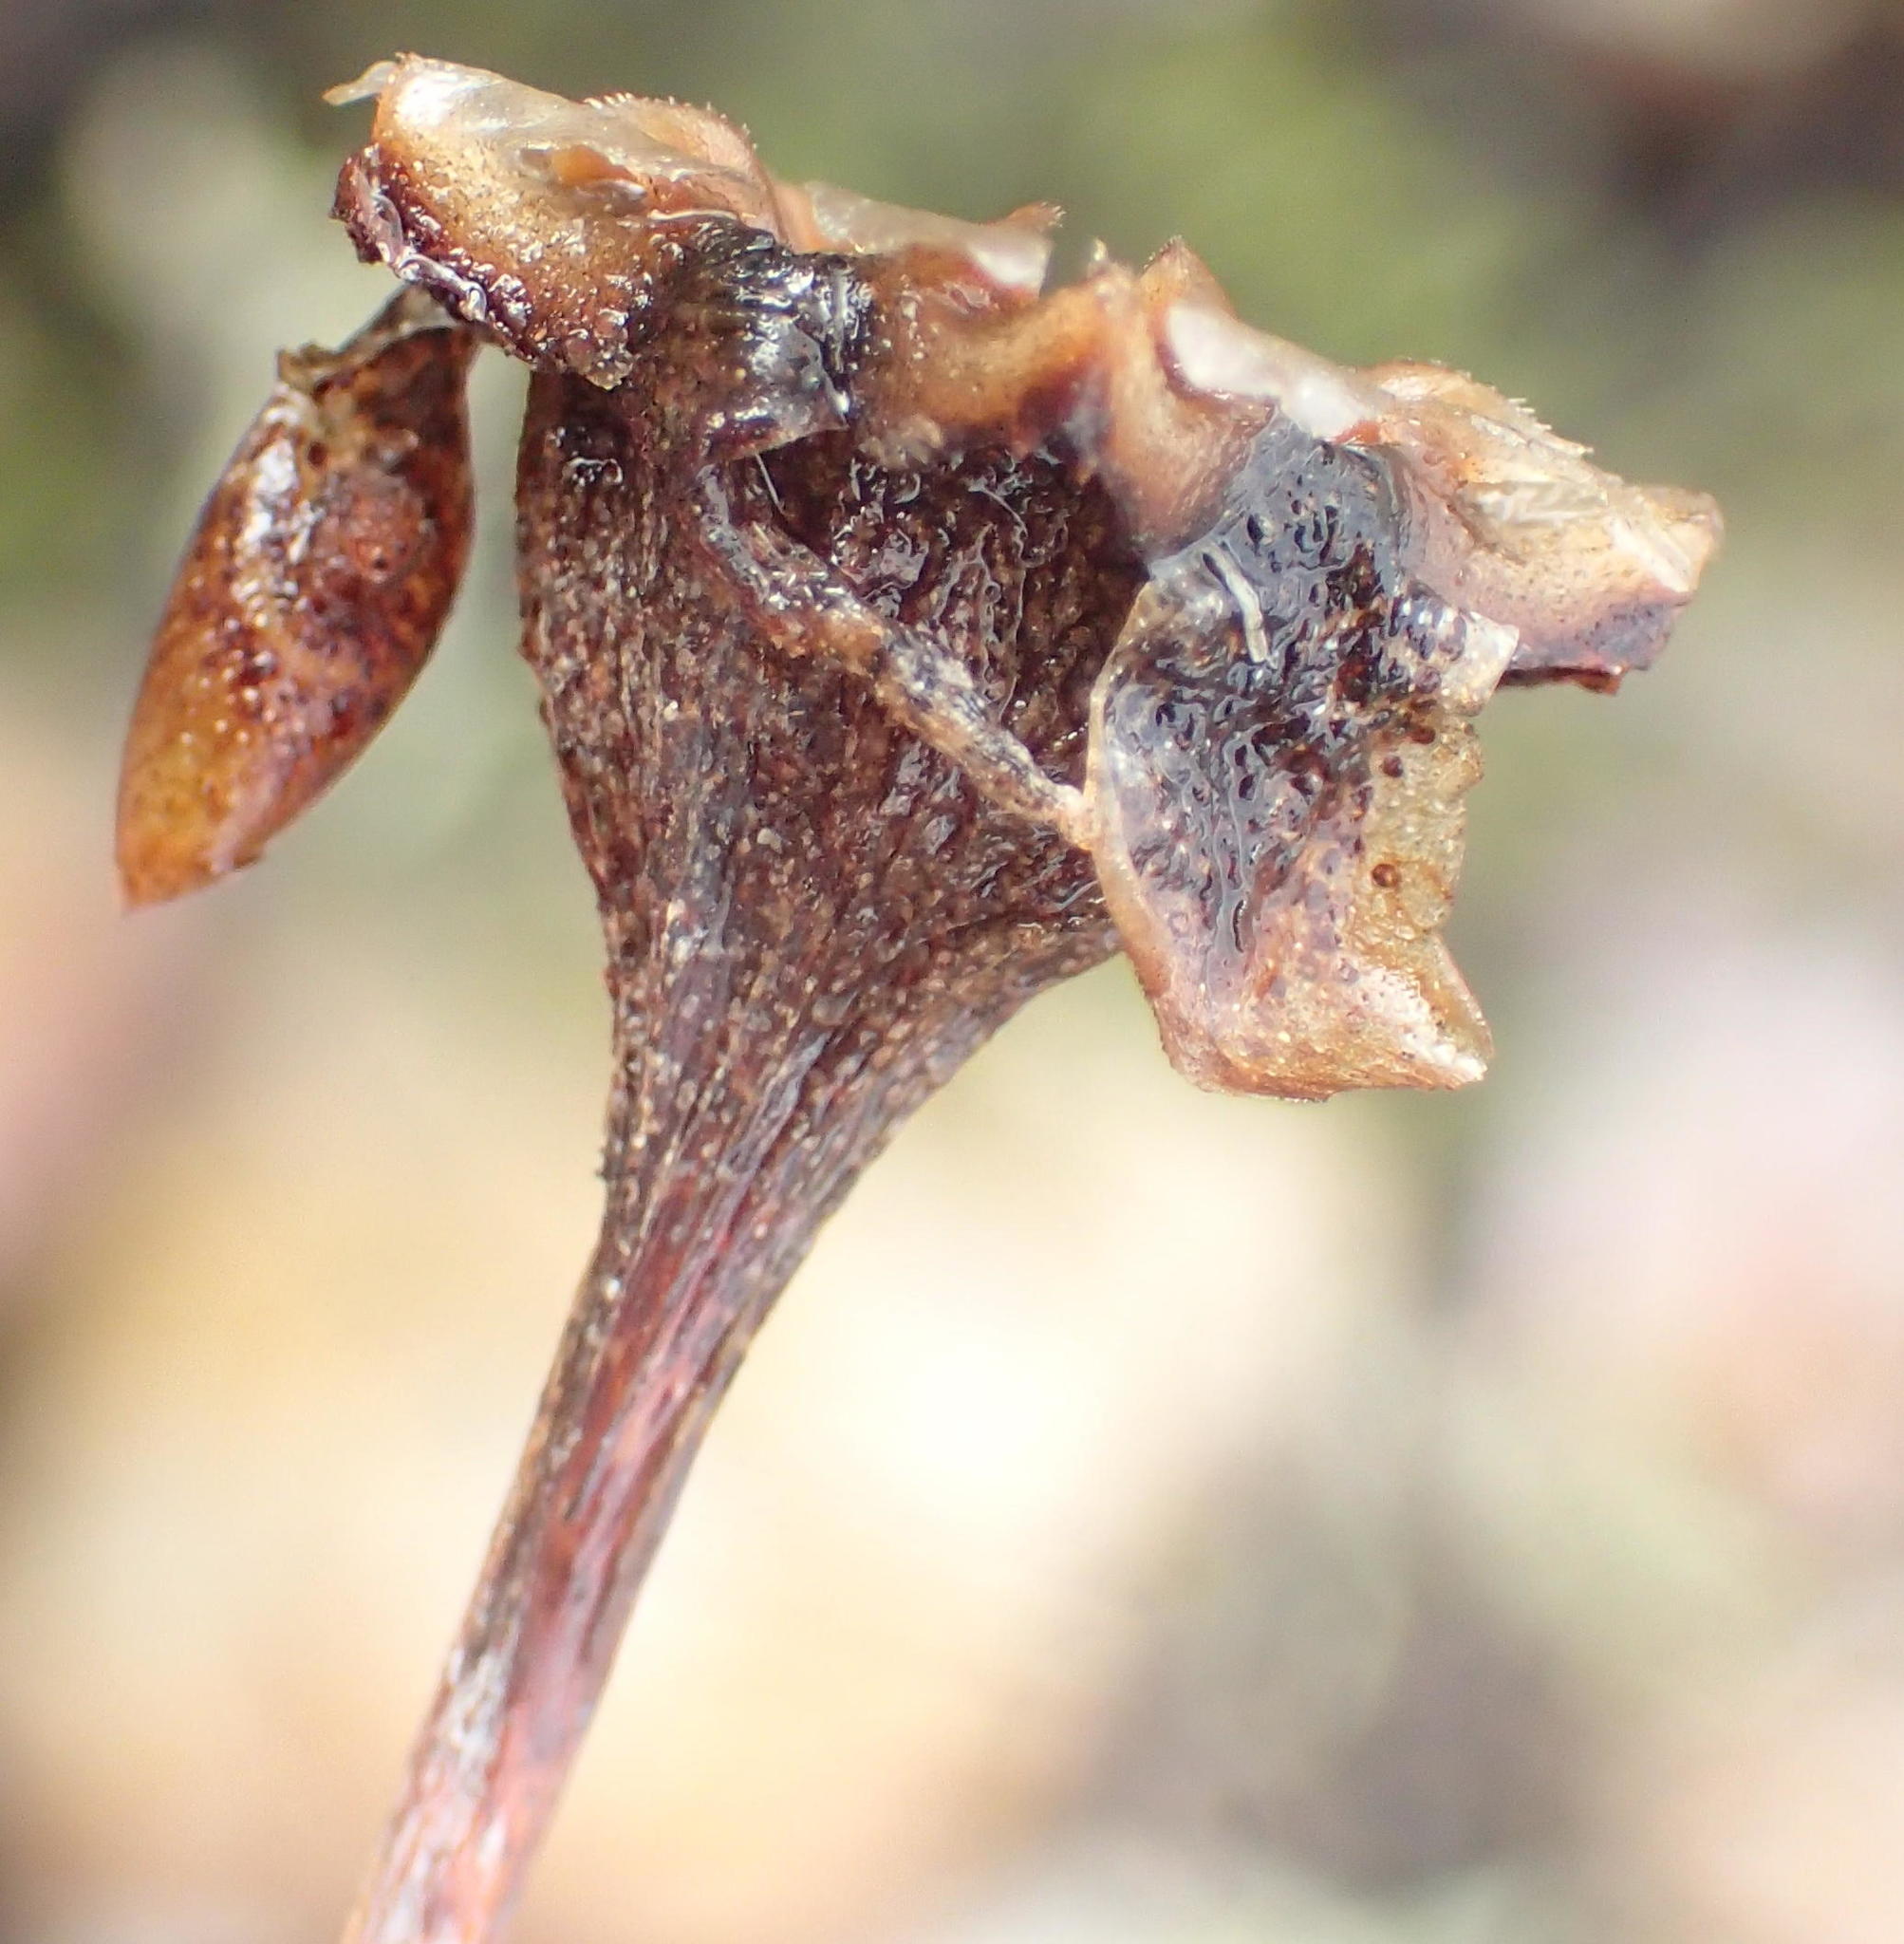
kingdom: Plantae
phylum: Tracheophyta
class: Magnoliopsida
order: Caryophyllales
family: Aizoaceae
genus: Lampranthus
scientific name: Lampranthus haworthii
